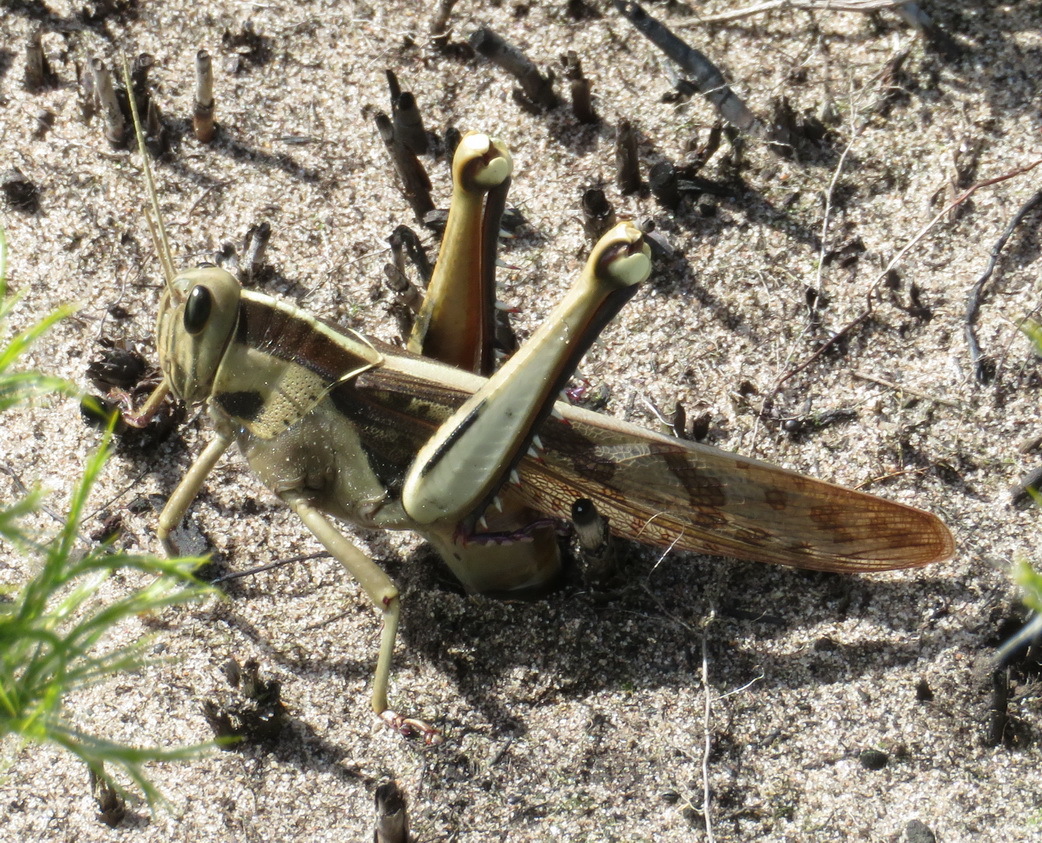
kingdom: Animalia
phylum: Arthropoda
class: Insecta
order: Orthoptera
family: Acrididae
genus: Acanthacris
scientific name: Acanthacris ruficornis
